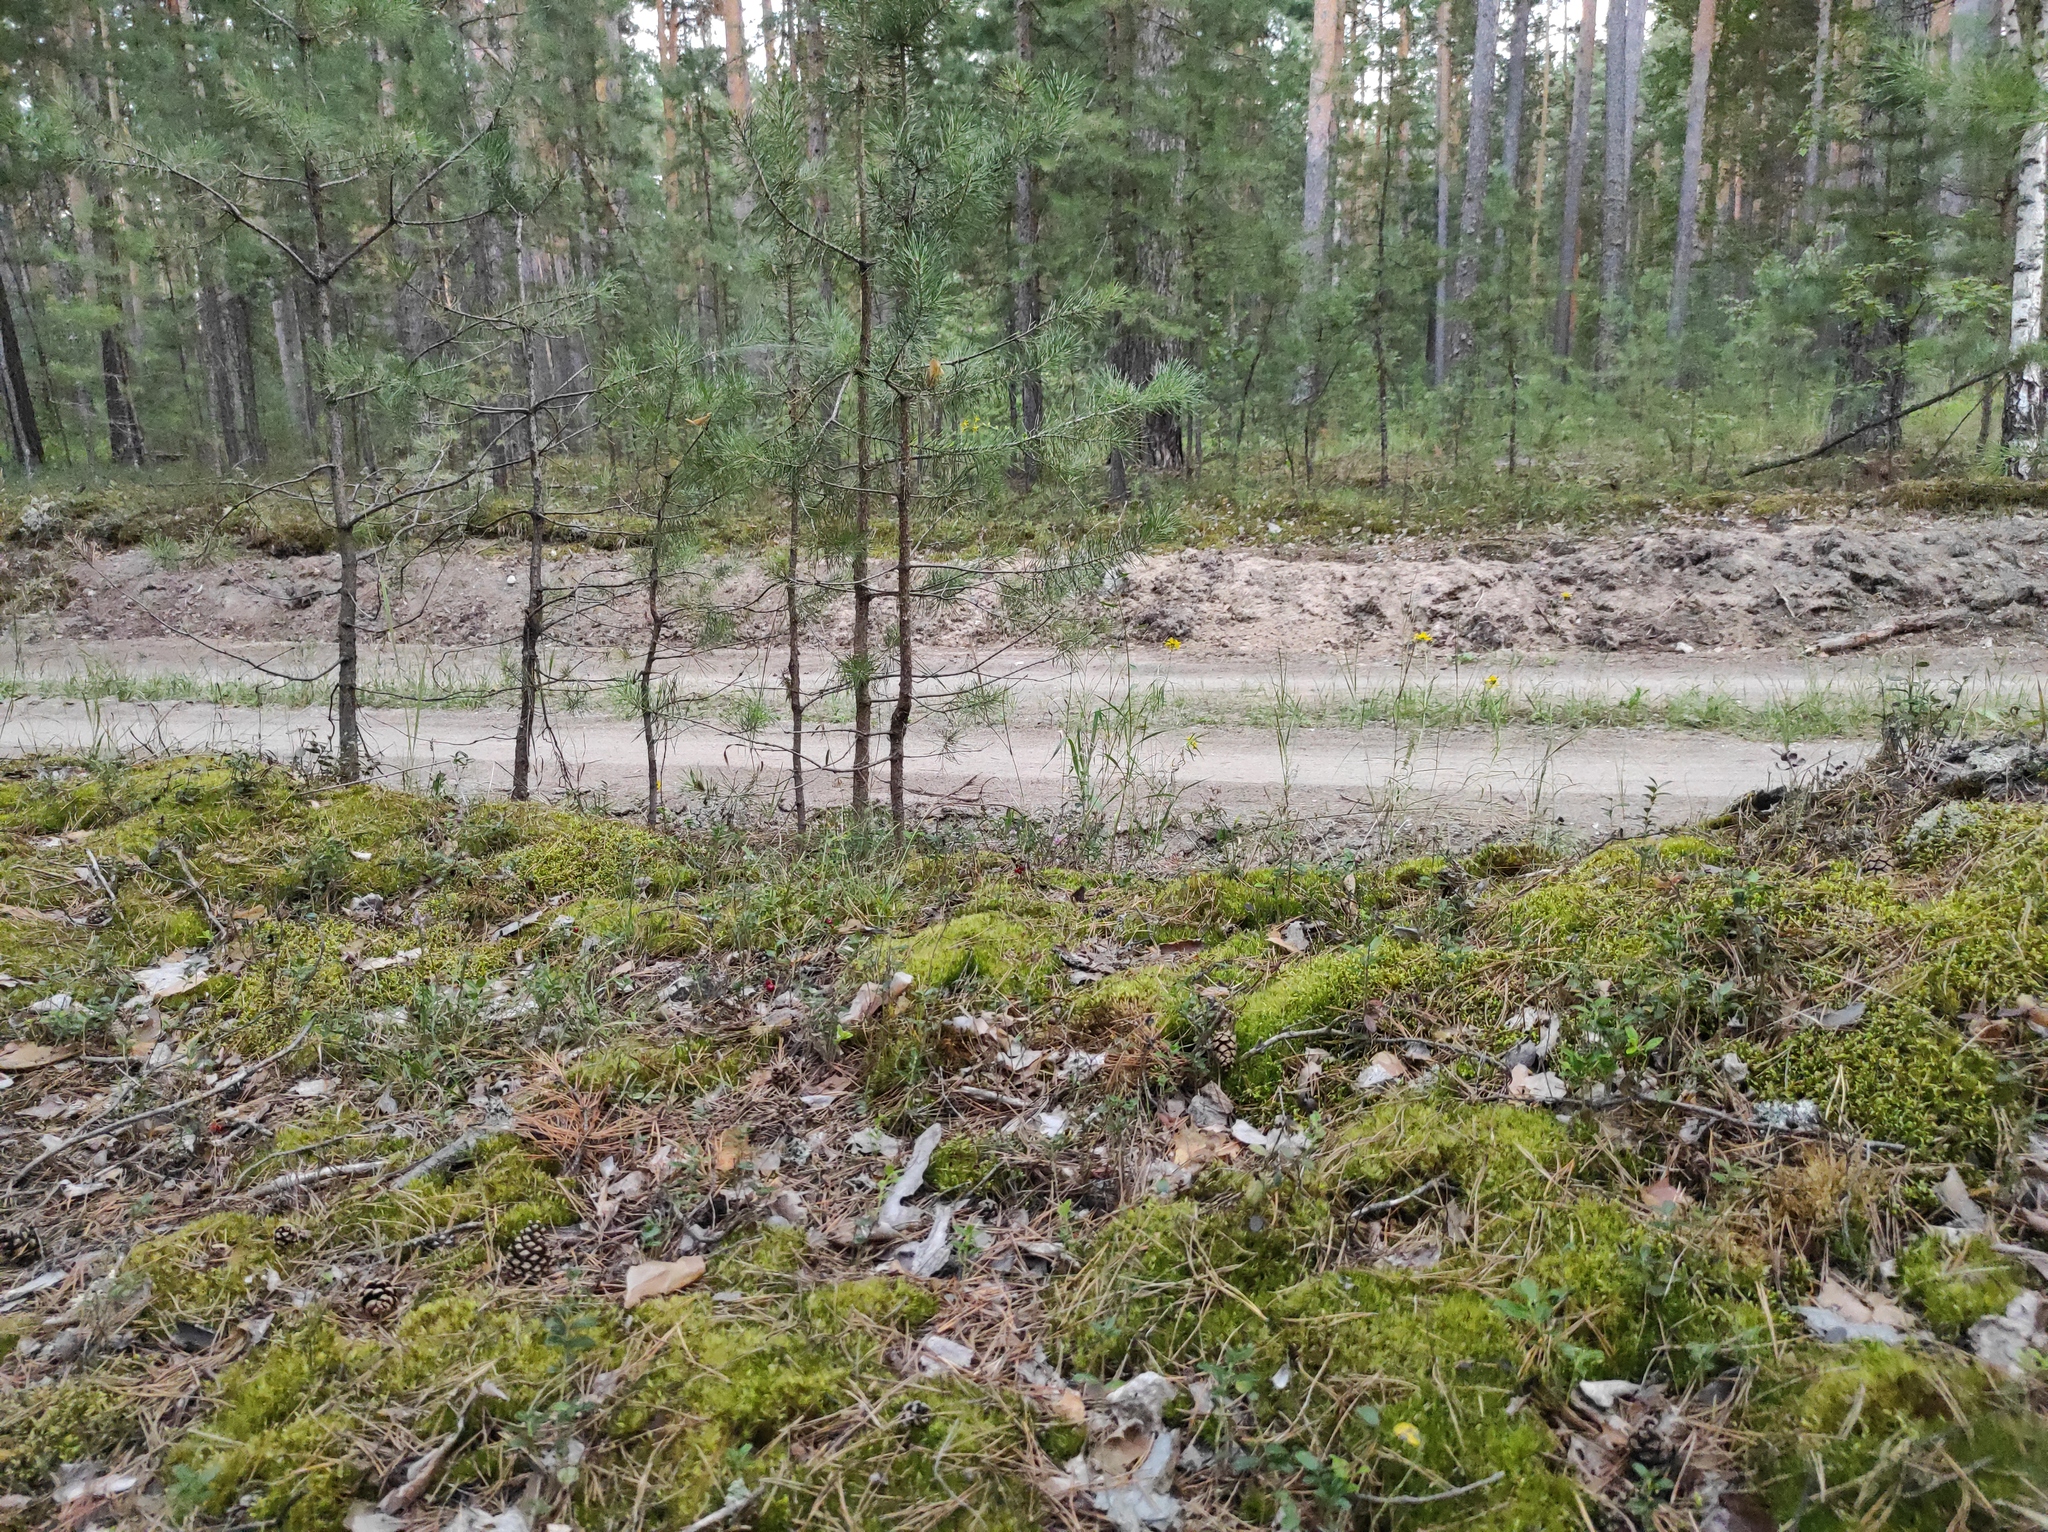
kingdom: Plantae
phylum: Tracheophyta
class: Pinopsida
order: Pinales
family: Pinaceae
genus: Pinus
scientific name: Pinus sylvestris
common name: Scots pine
